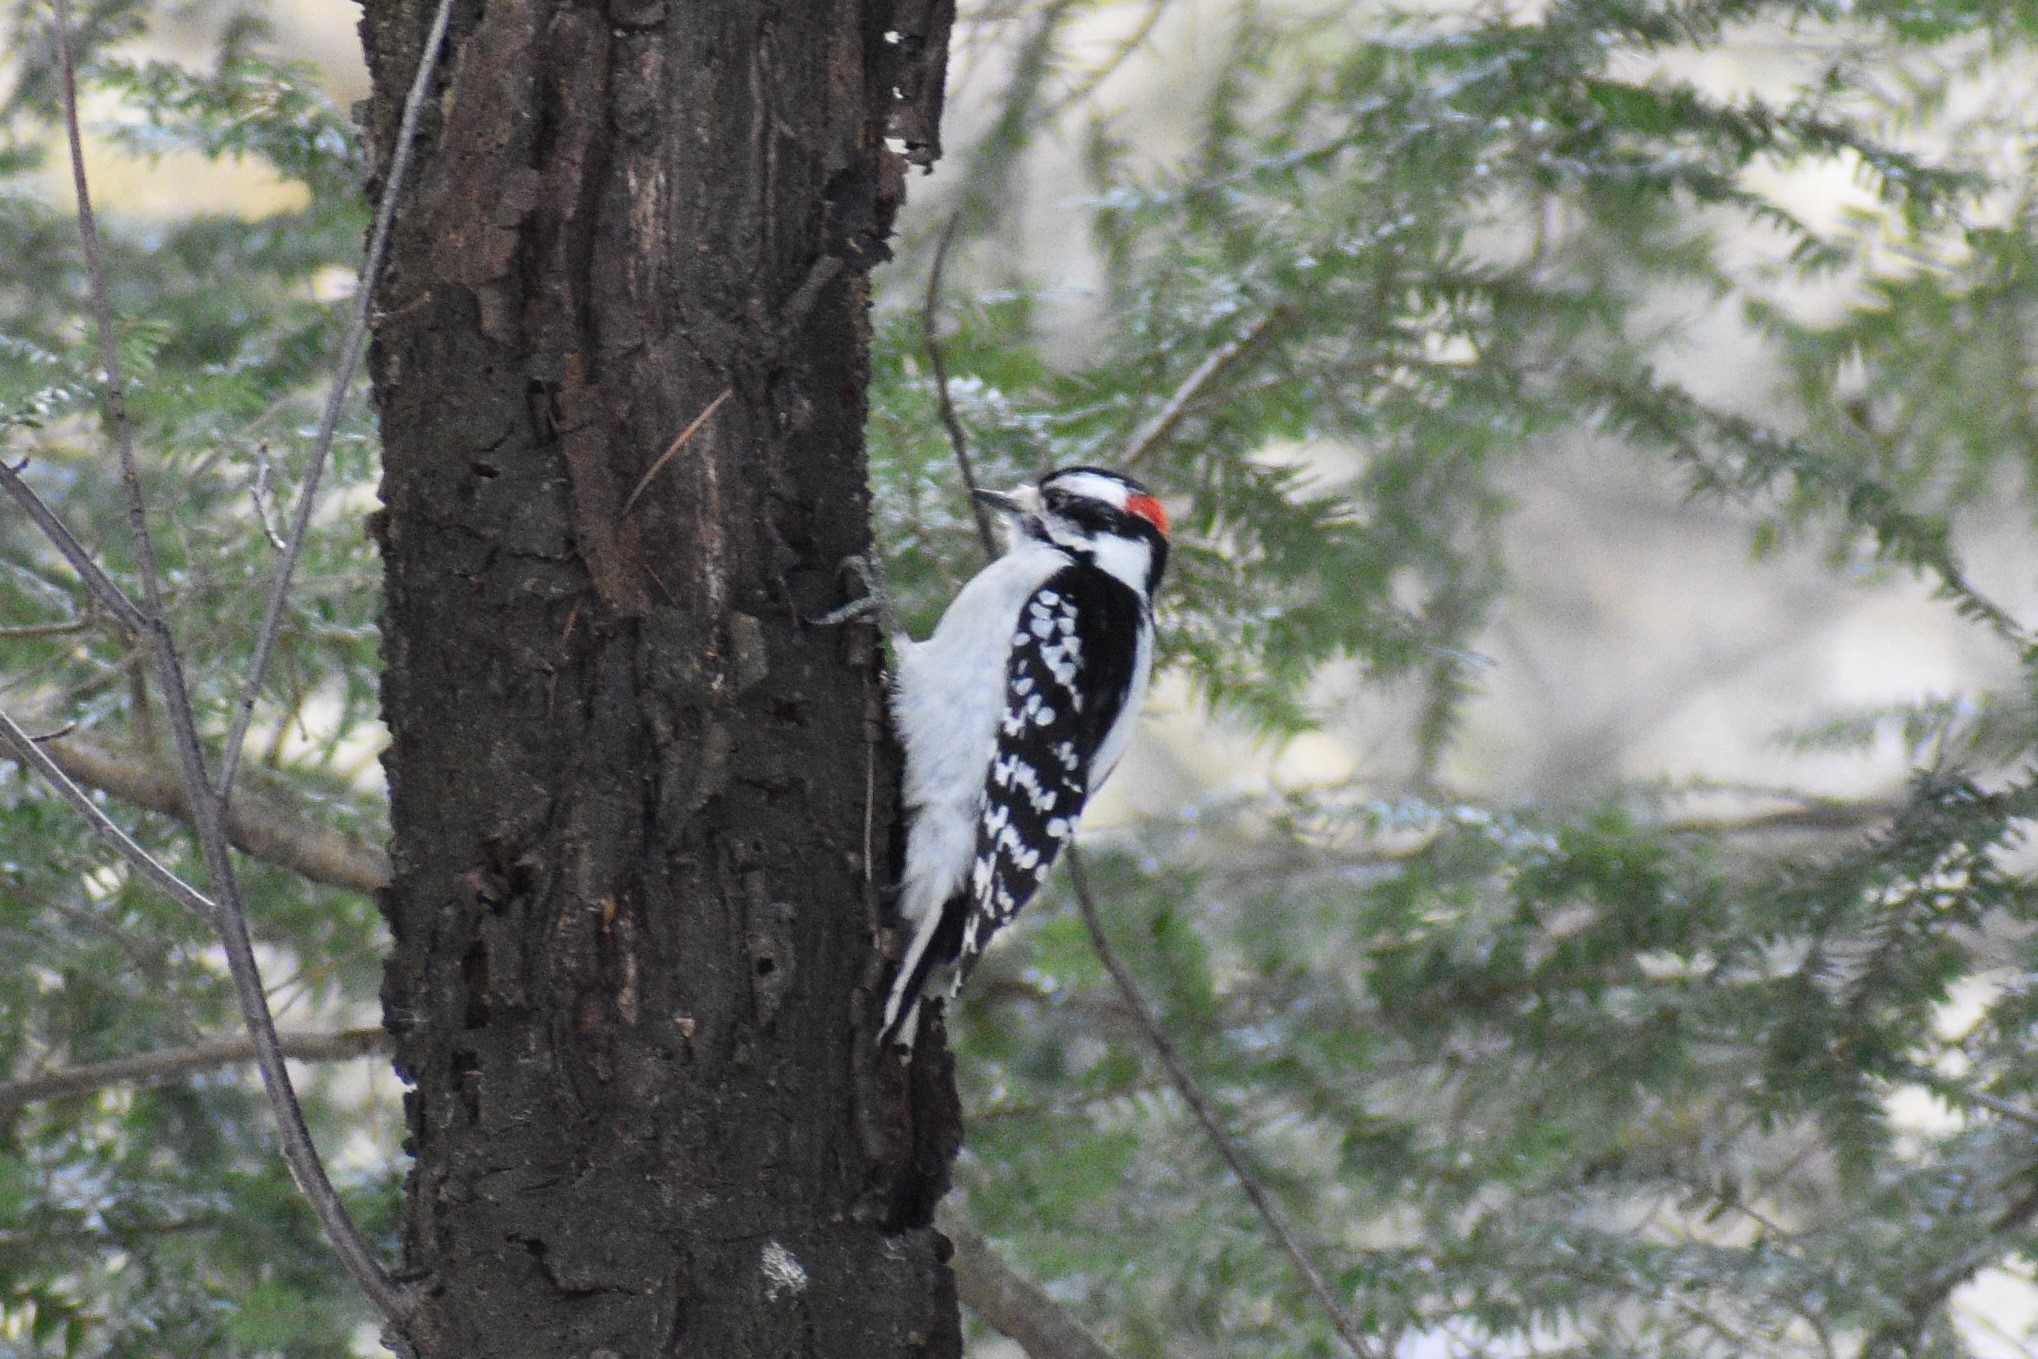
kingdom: Animalia
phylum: Chordata
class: Aves
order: Piciformes
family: Picidae
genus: Dryobates
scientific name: Dryobates pubescens
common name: Downy woodpecker
